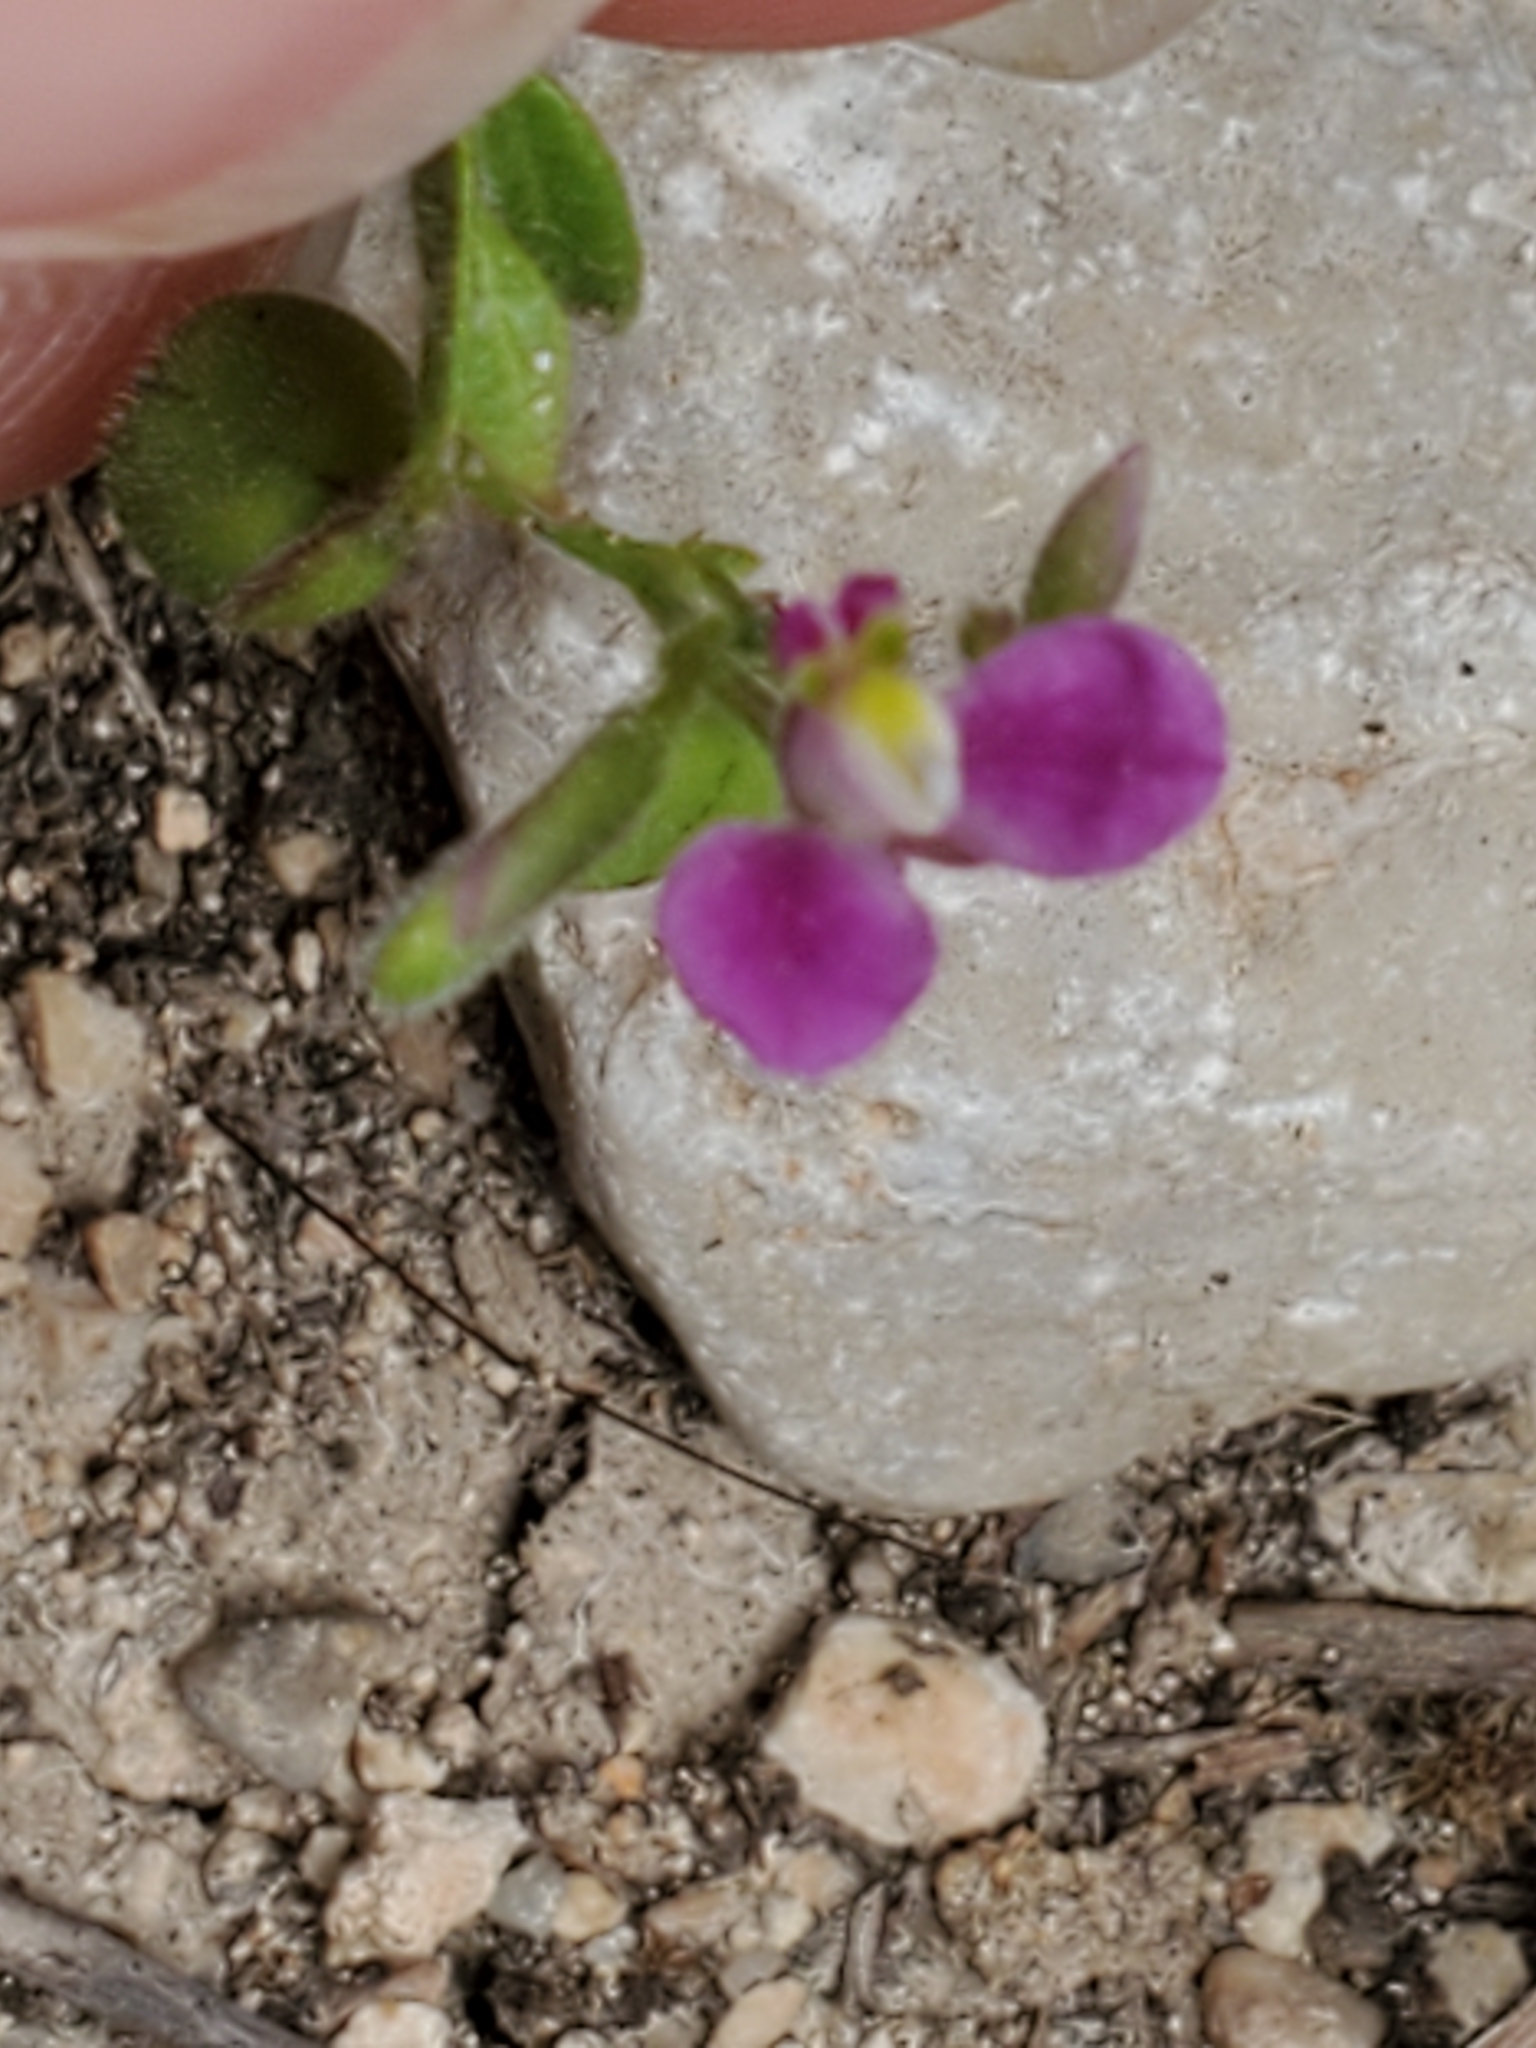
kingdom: Plantae
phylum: Tracheophyta
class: Magnoliopsida
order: Fabales
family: Polygalaceae
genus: Rhinotropis
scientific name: Rhinotropis lindheimeri
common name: Shrubby milkwort
